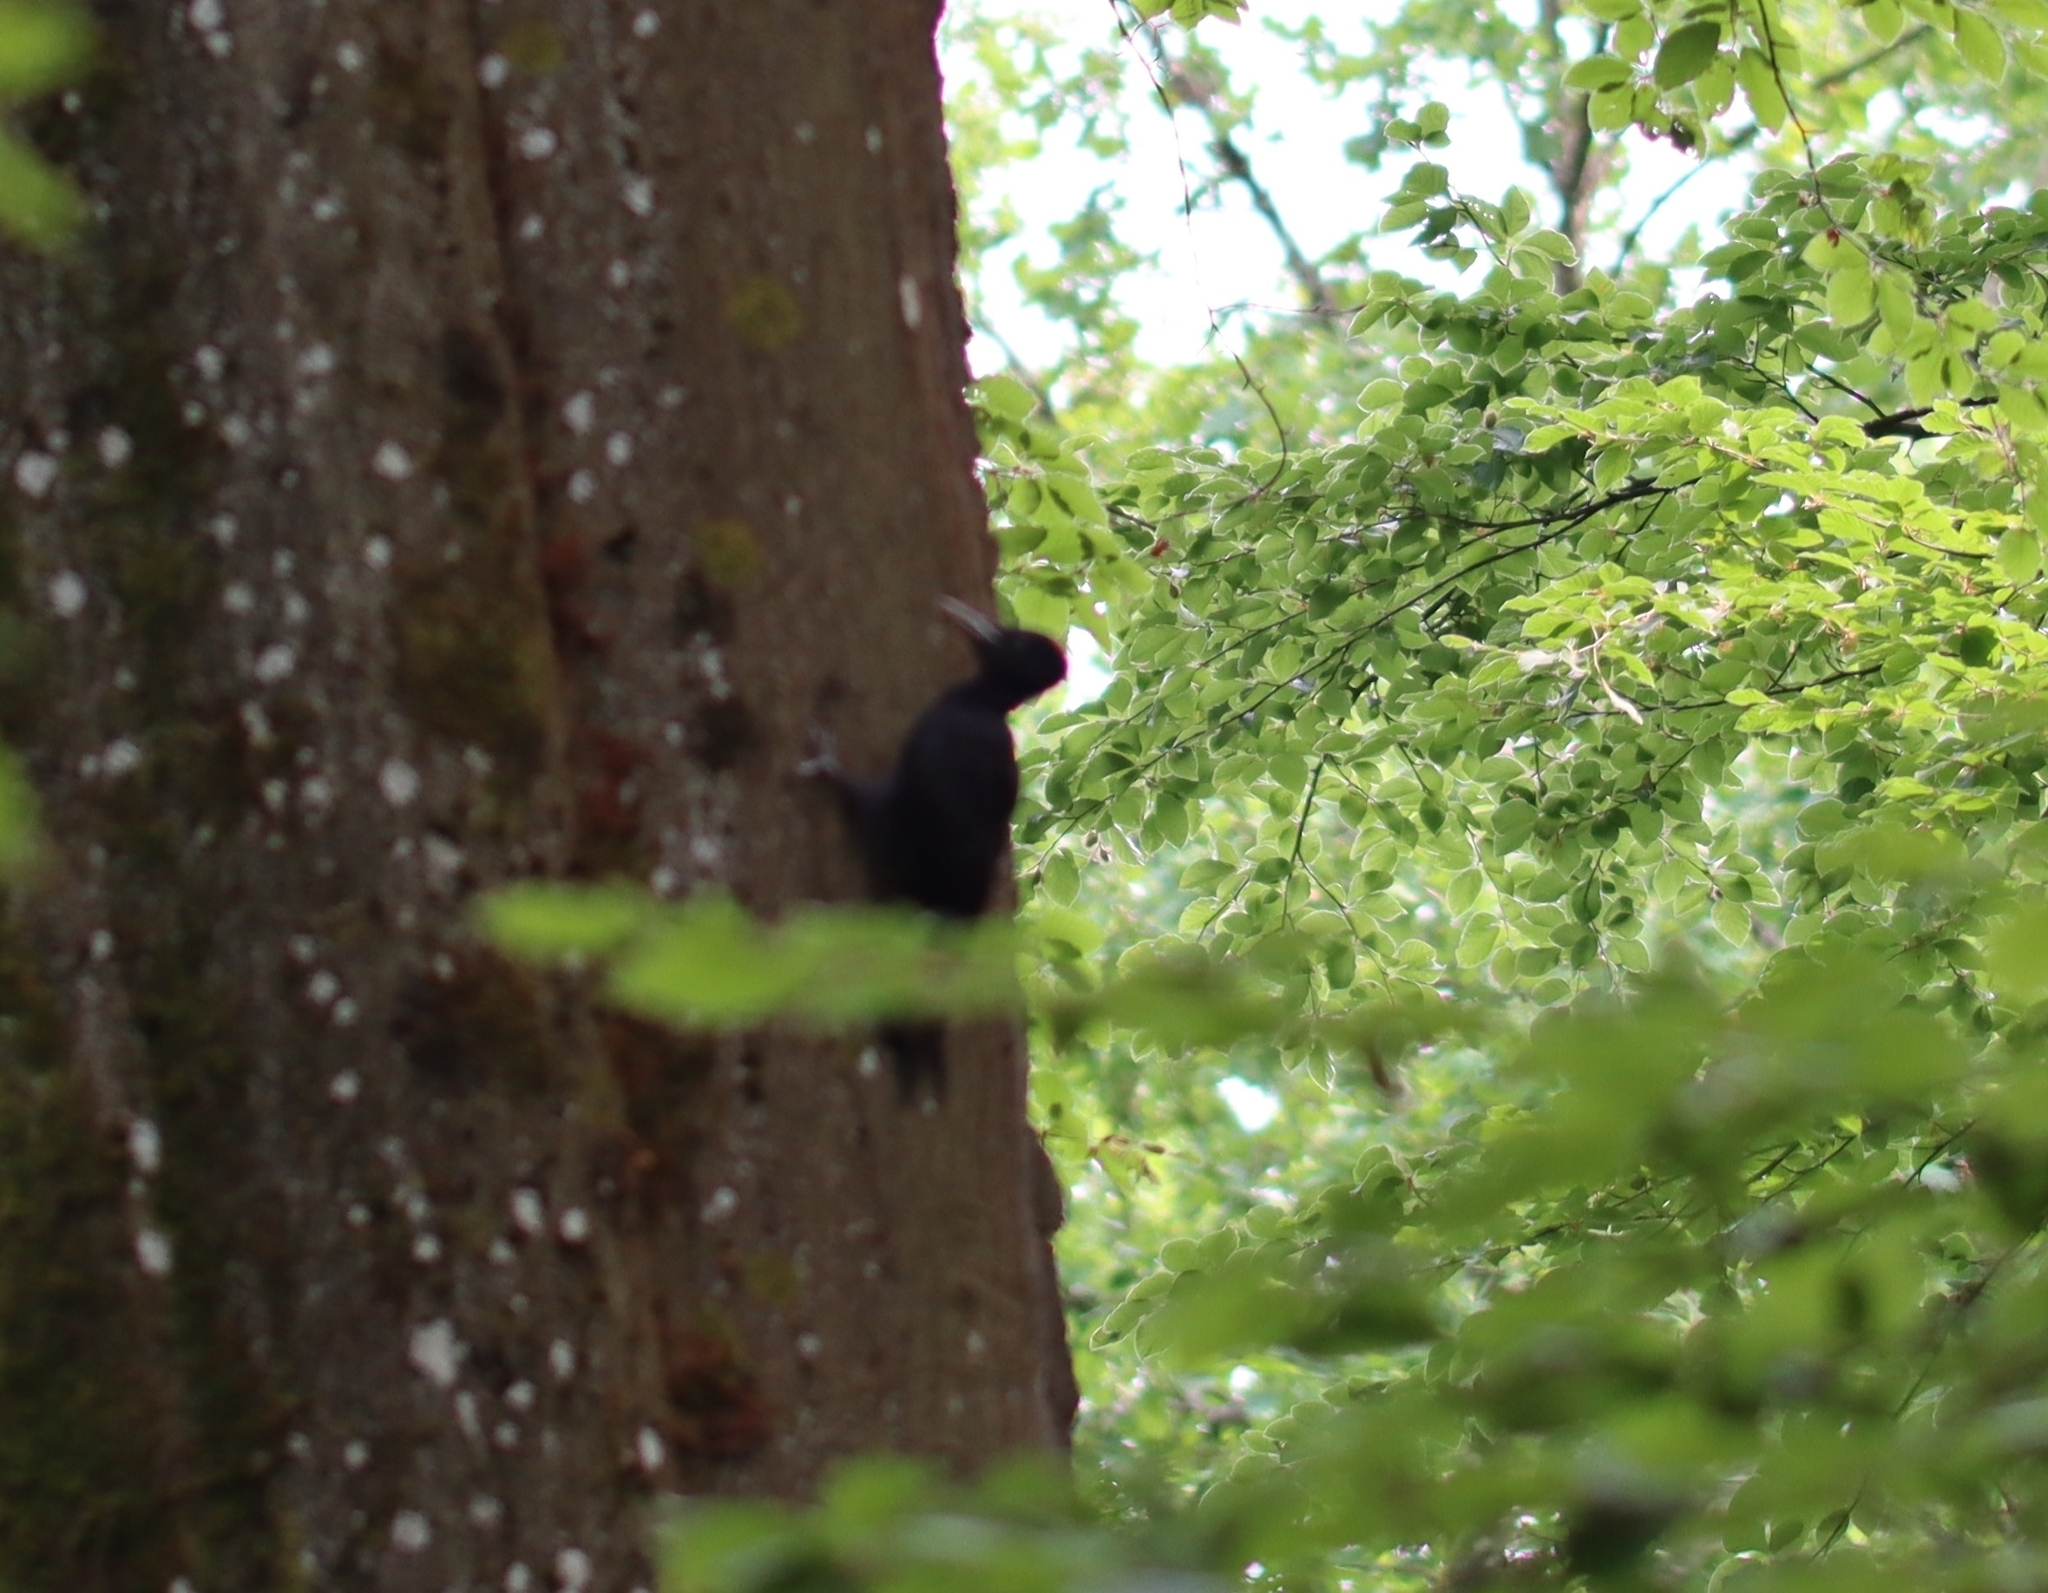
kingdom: Animalia
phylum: Chordata
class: Aves
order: Piciformes
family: Picidae
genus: Dryocopus
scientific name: Dryocopus martius
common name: Black woodpecker
